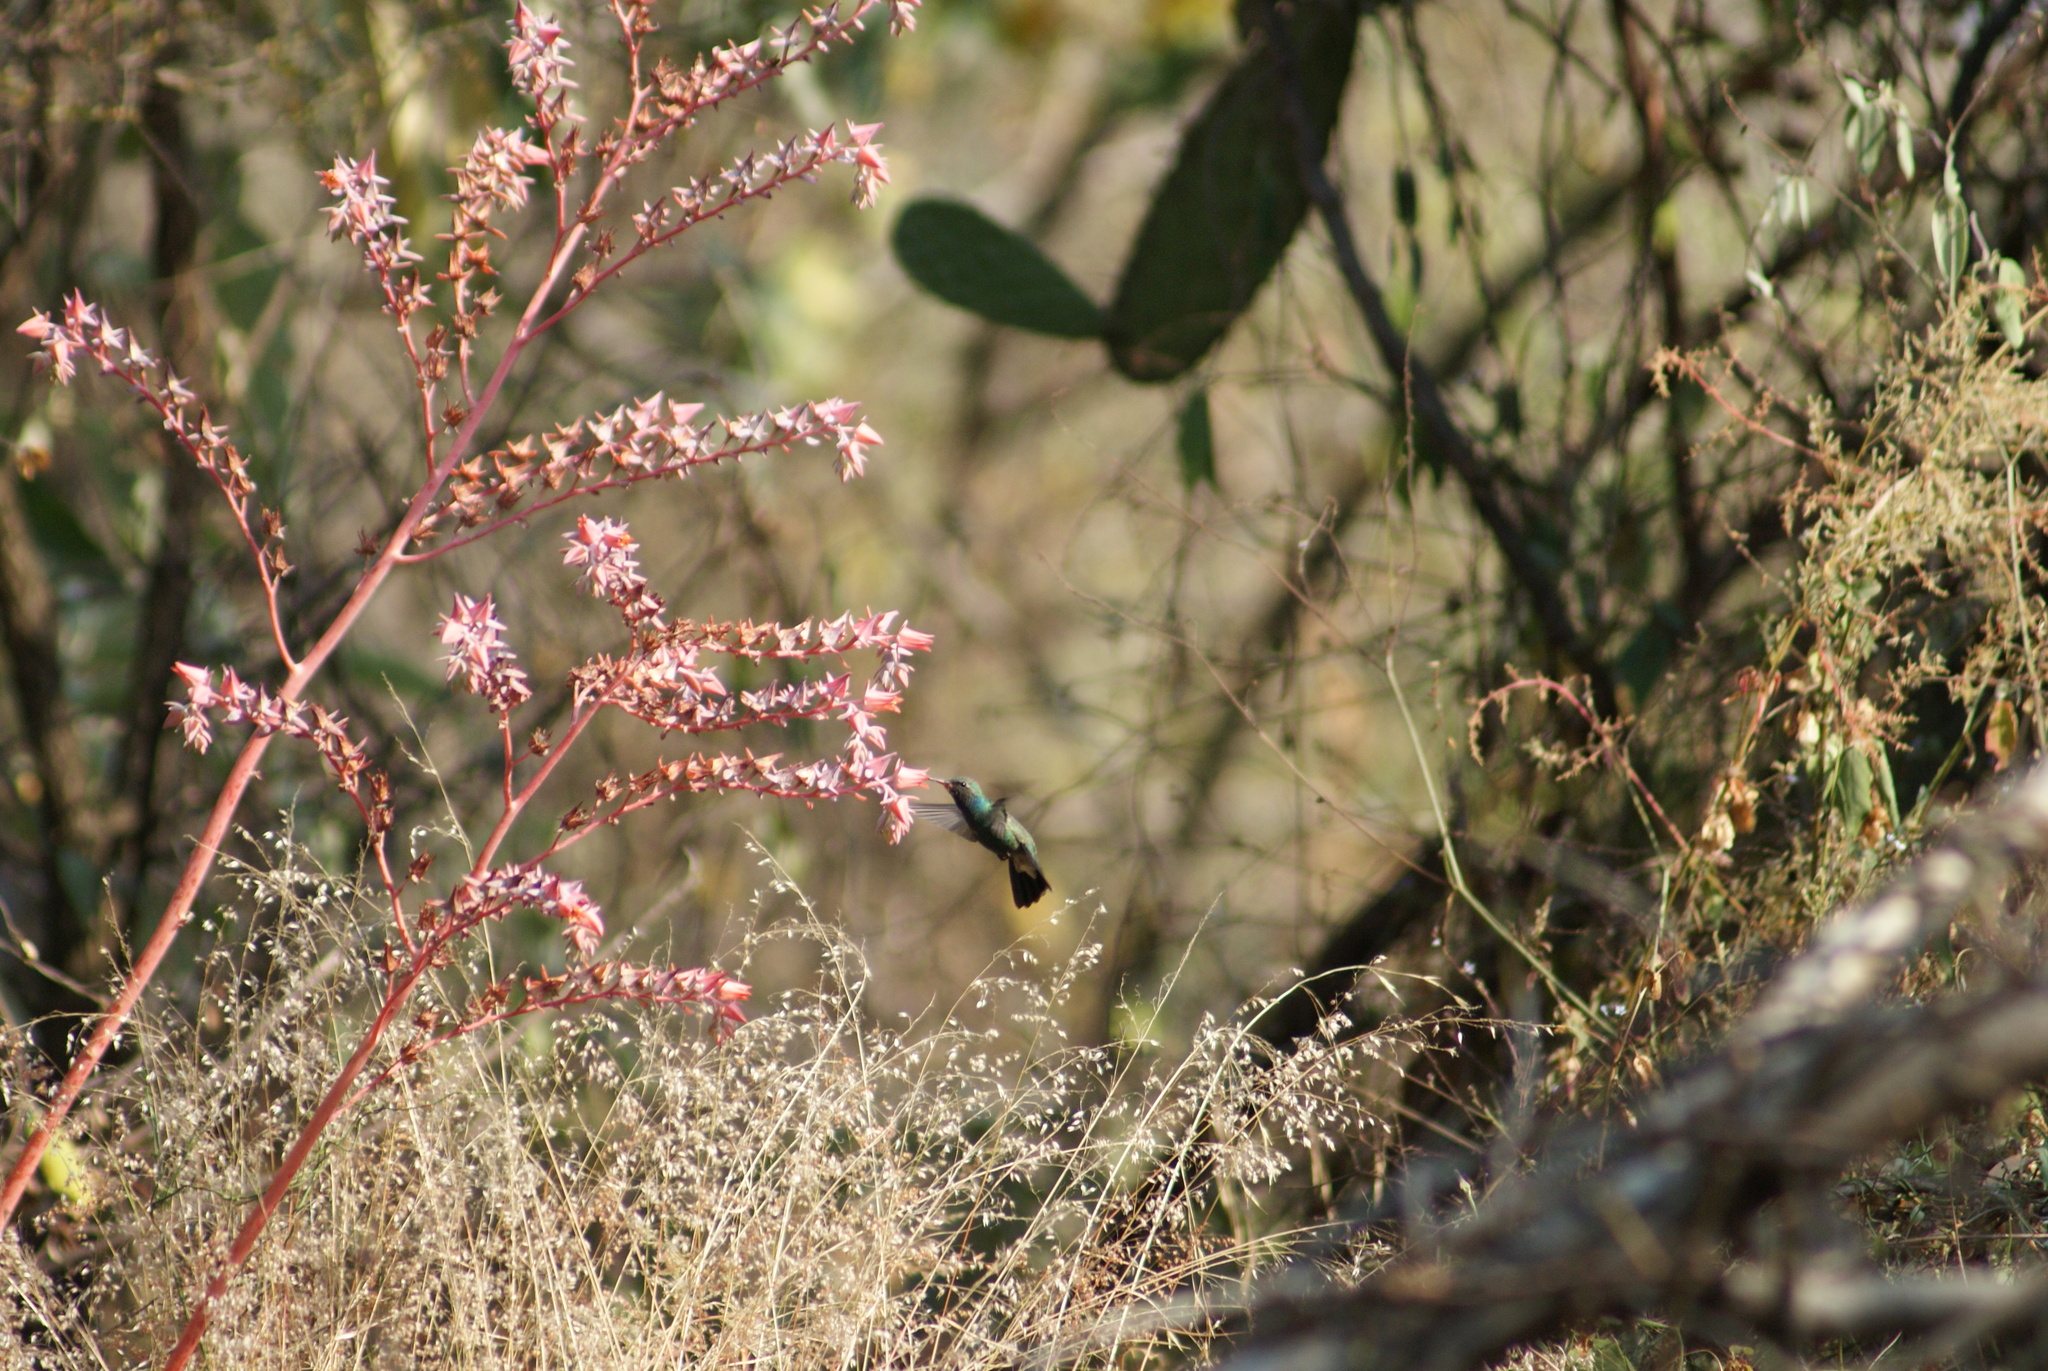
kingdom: Plantae
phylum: Tracheophyta
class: Magnoliopsida
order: Saxifragales
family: Crassulaceae
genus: Echeveria
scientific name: Echeveria gibbiflora
